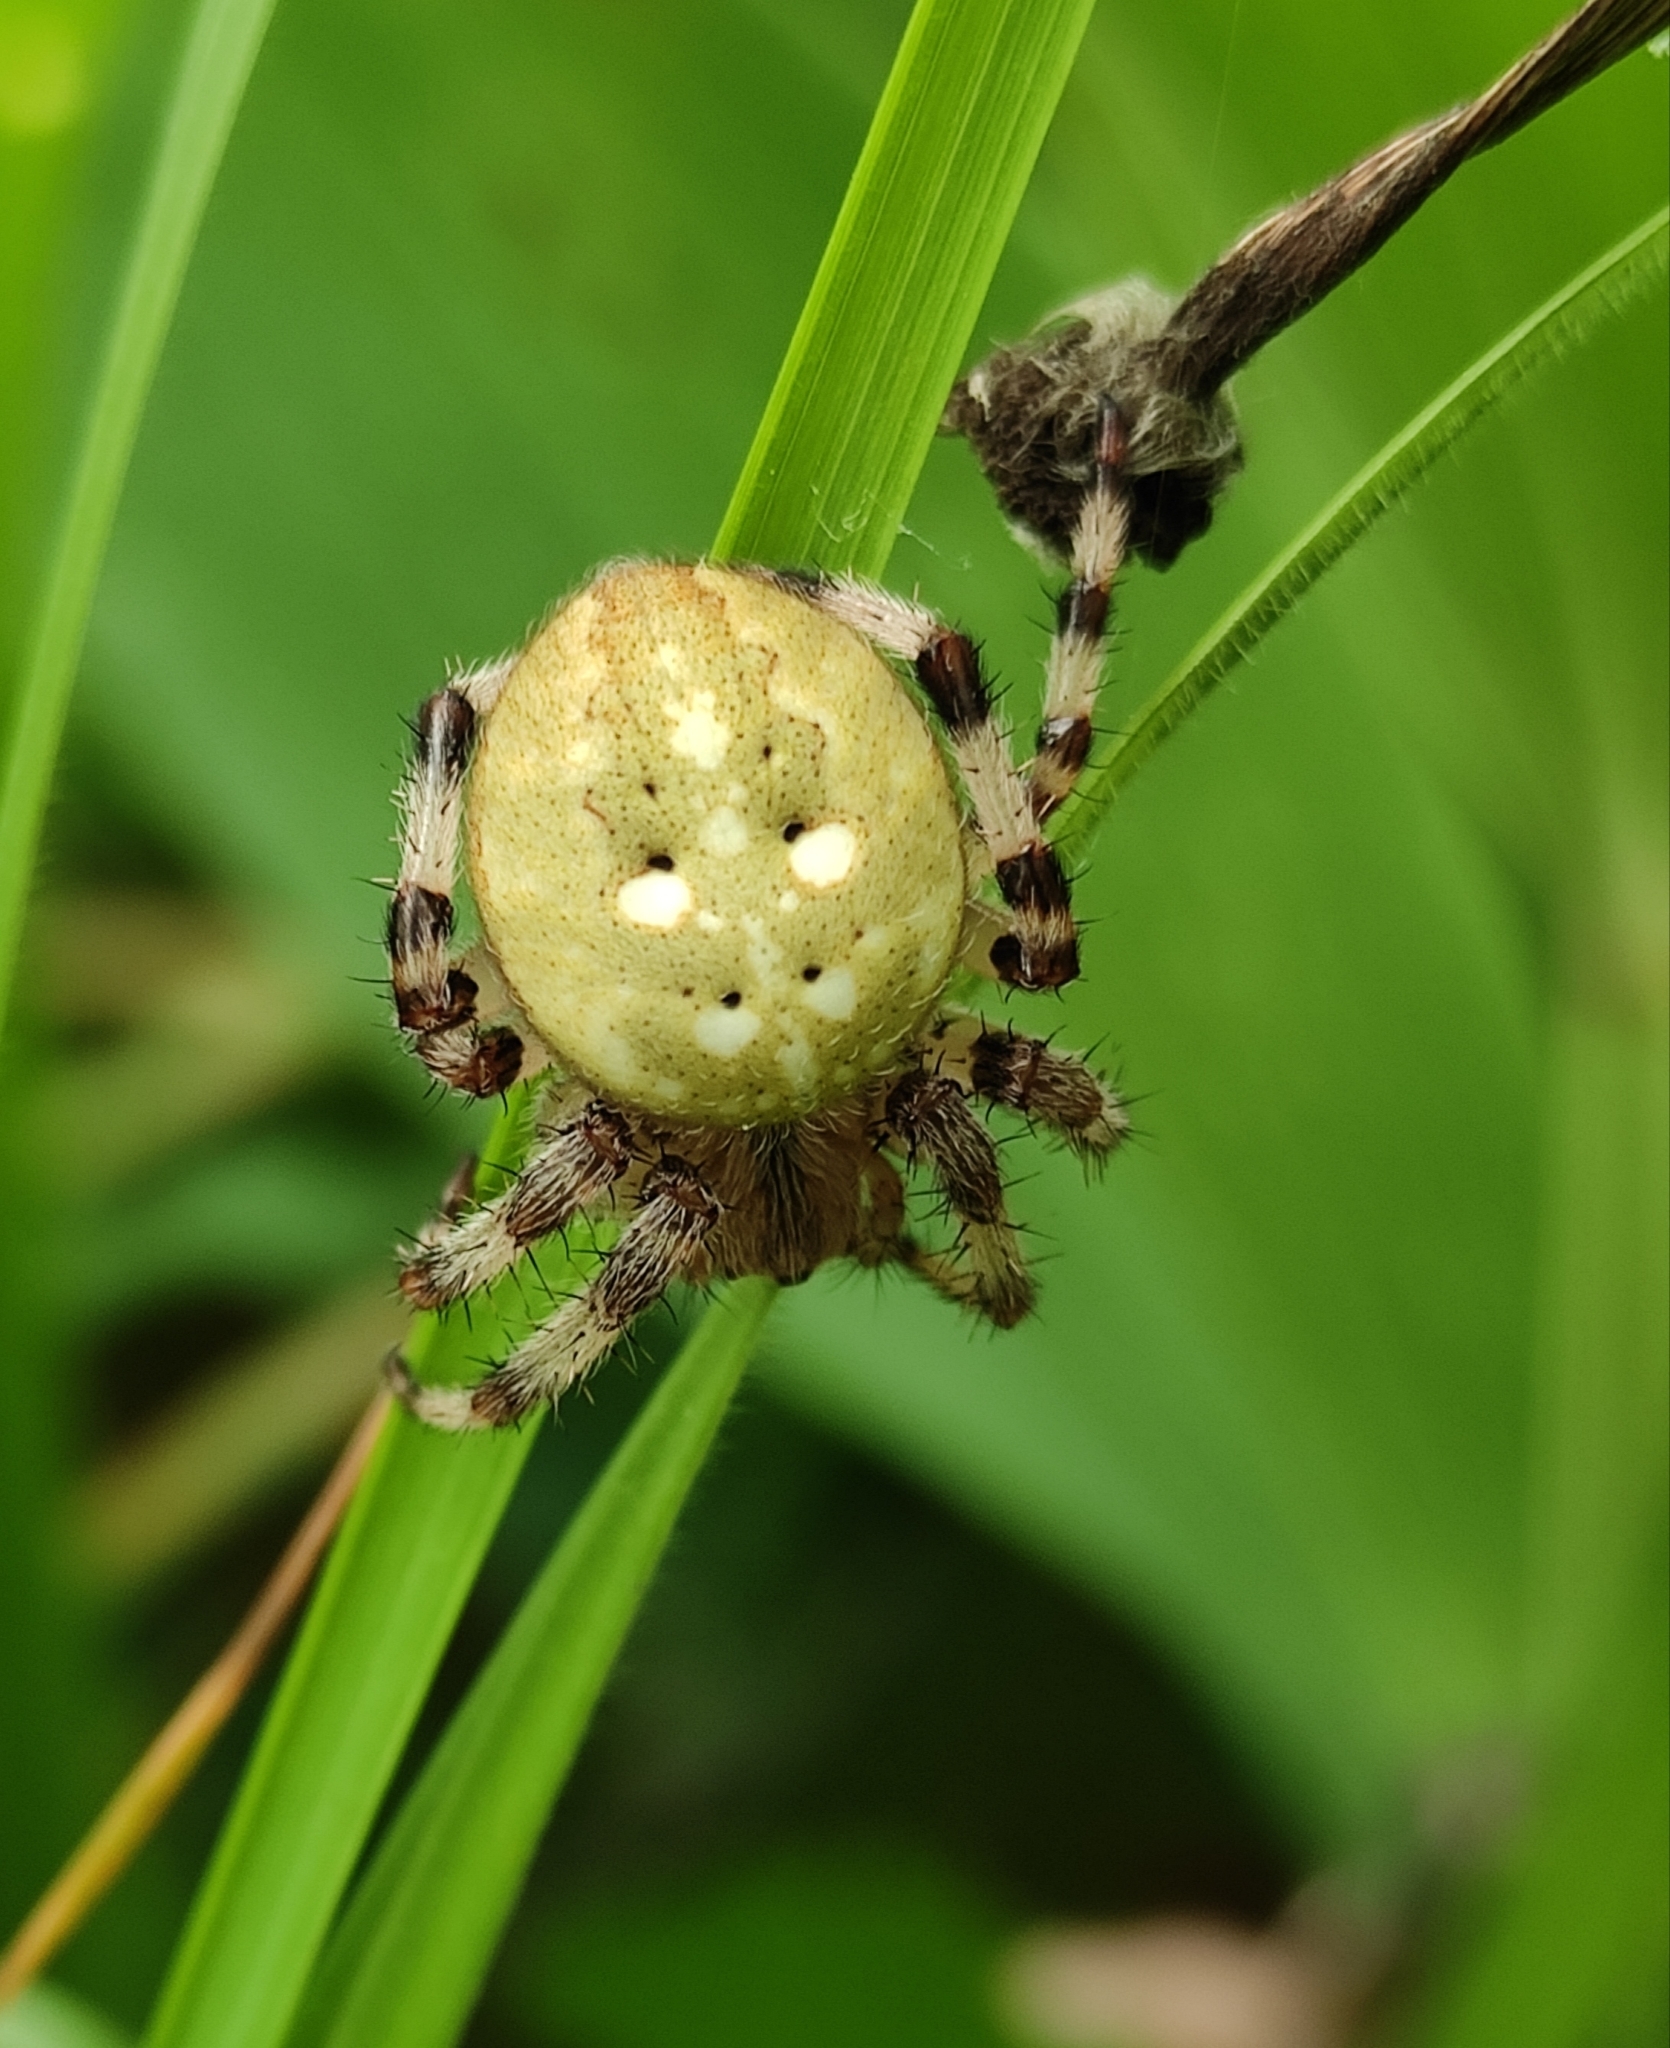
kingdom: Animalia
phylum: Arthropoda
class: Arachnida
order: Araneae
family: Araneidae
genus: Araneus
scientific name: Araneus quadratus
